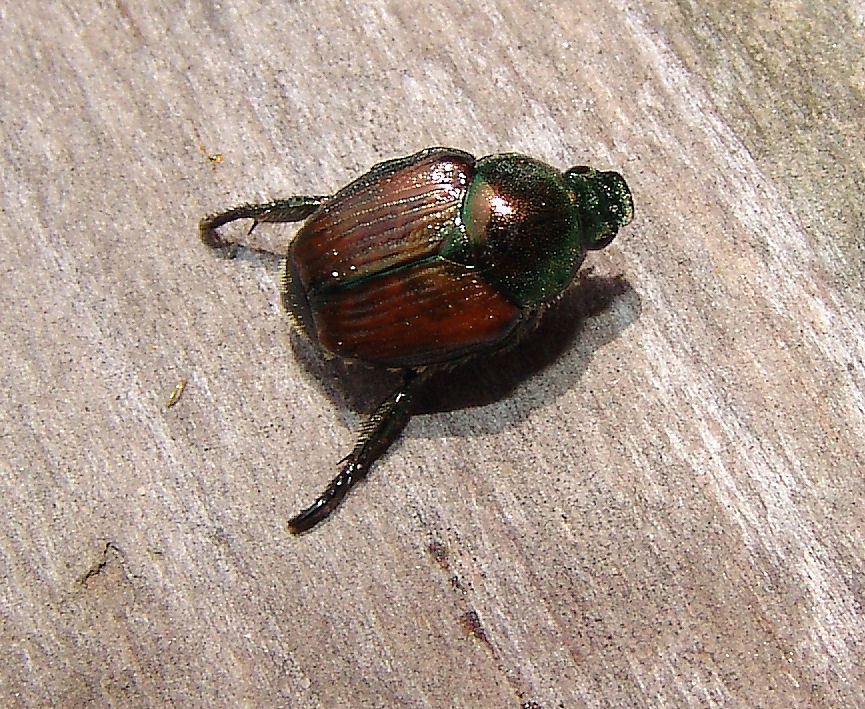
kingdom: Animalia
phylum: Arthropoda
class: Insecta
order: Coleoptera
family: Scarabaeidae
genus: Popillia
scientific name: Popillia japonica
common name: Japanese beetle
